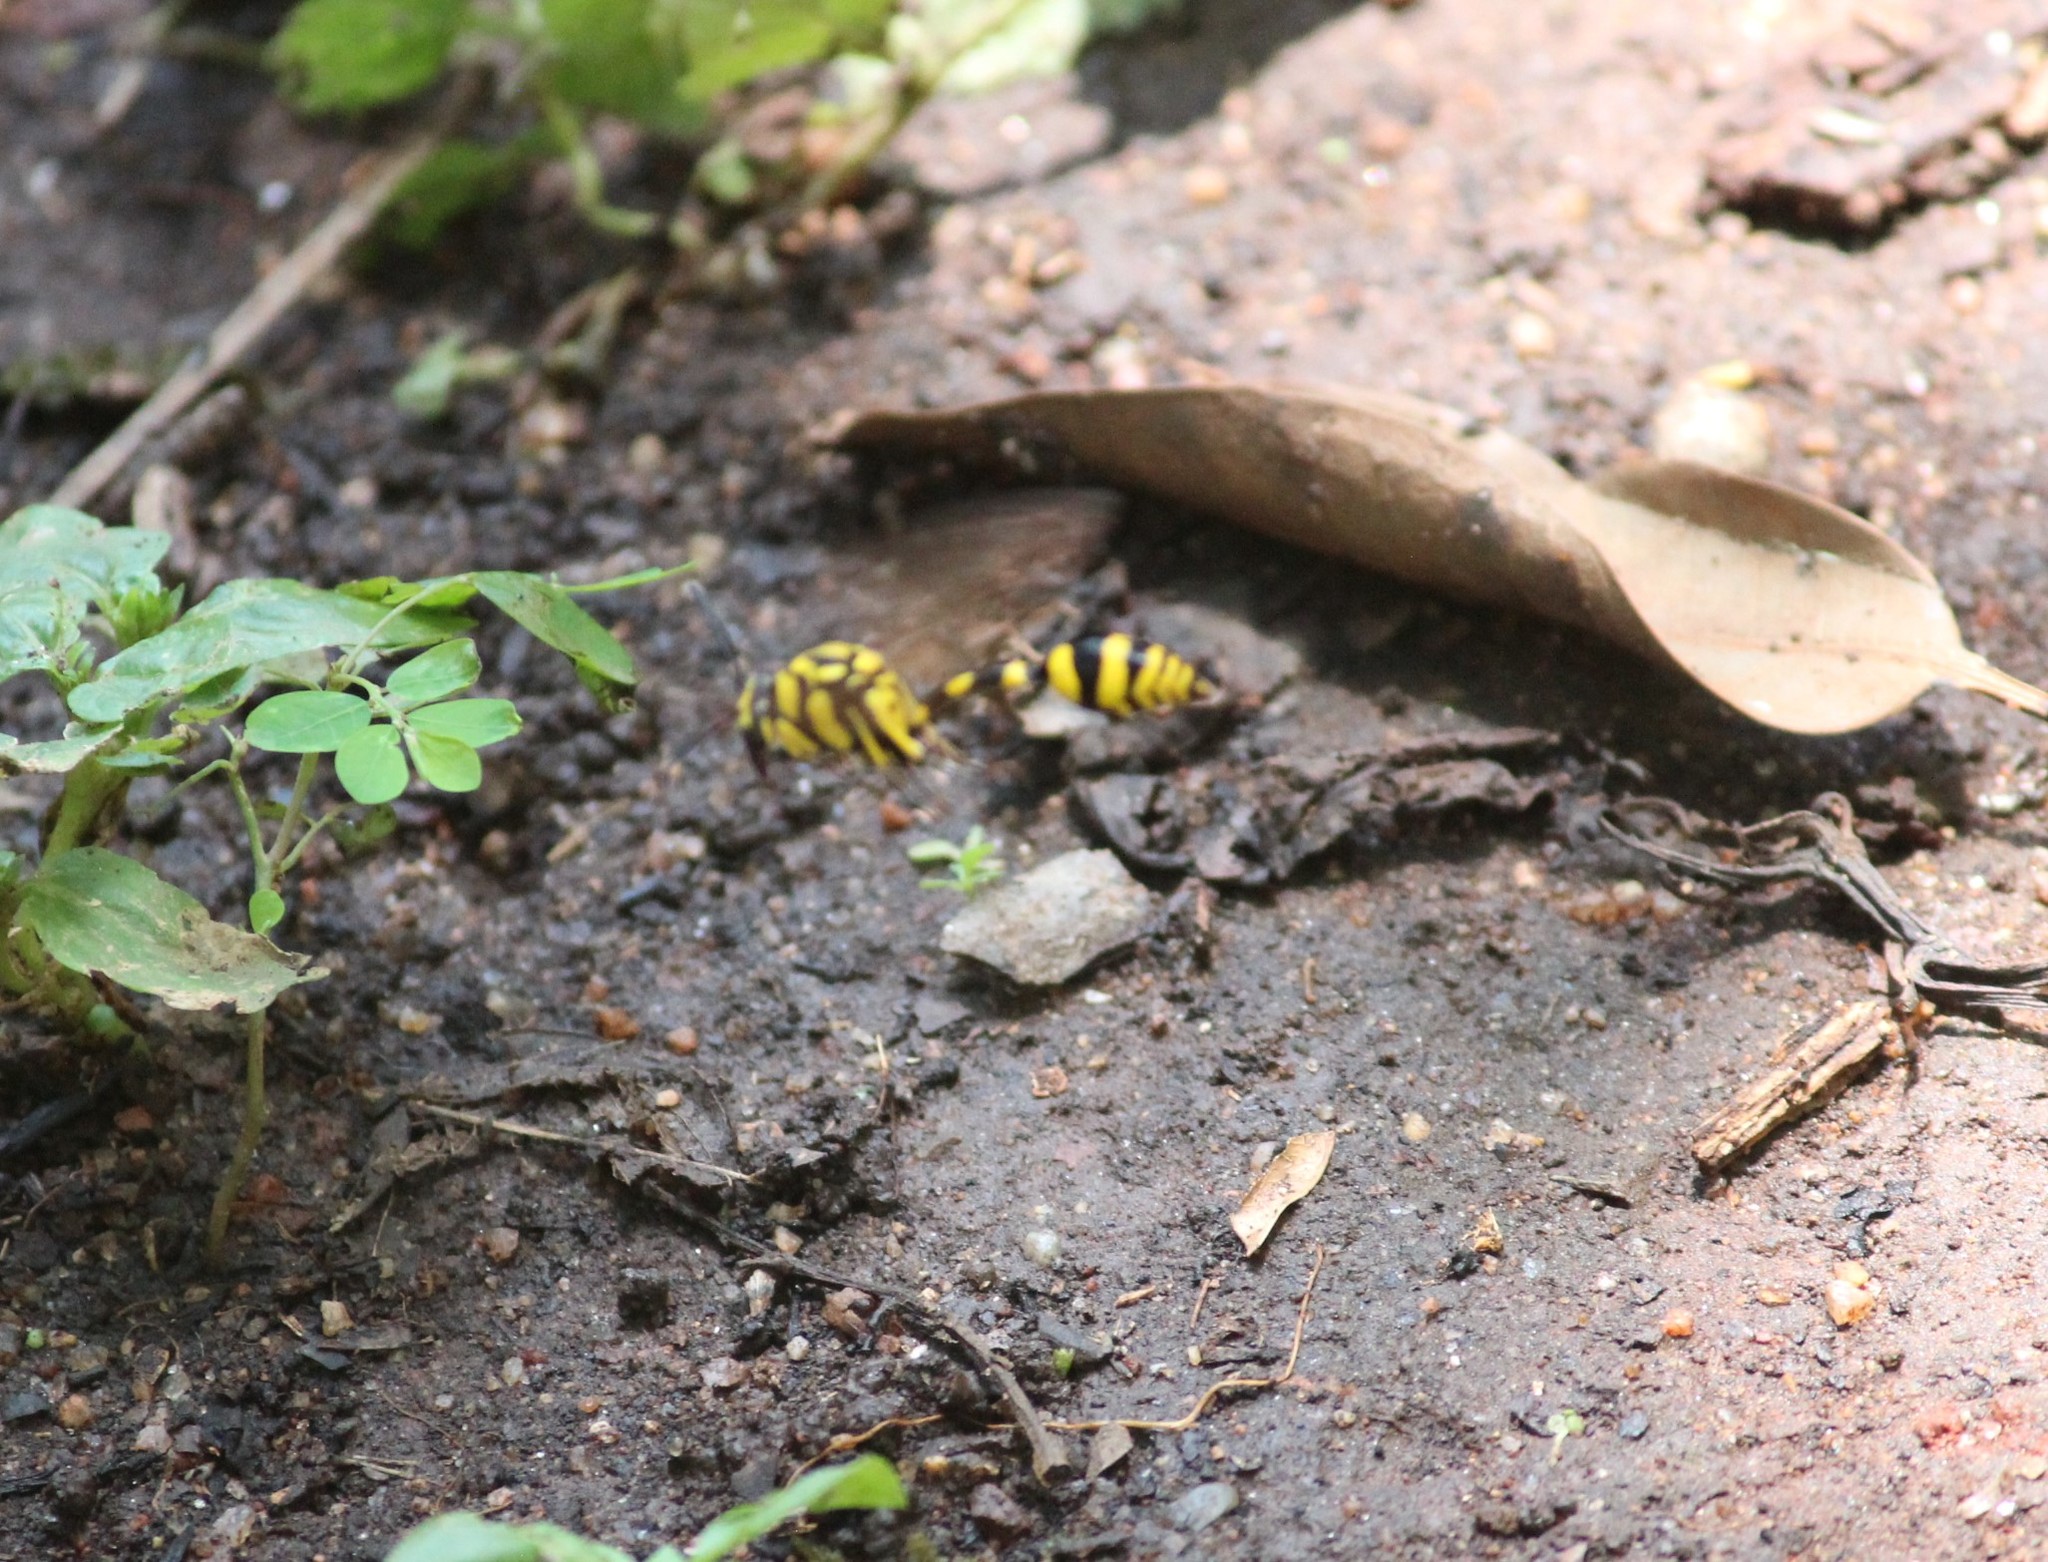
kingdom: Animalia
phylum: Arthropoda
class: Insecta
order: Hymenoptera
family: Eumenidae
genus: Phimenes
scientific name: Phimenes flavopictus
